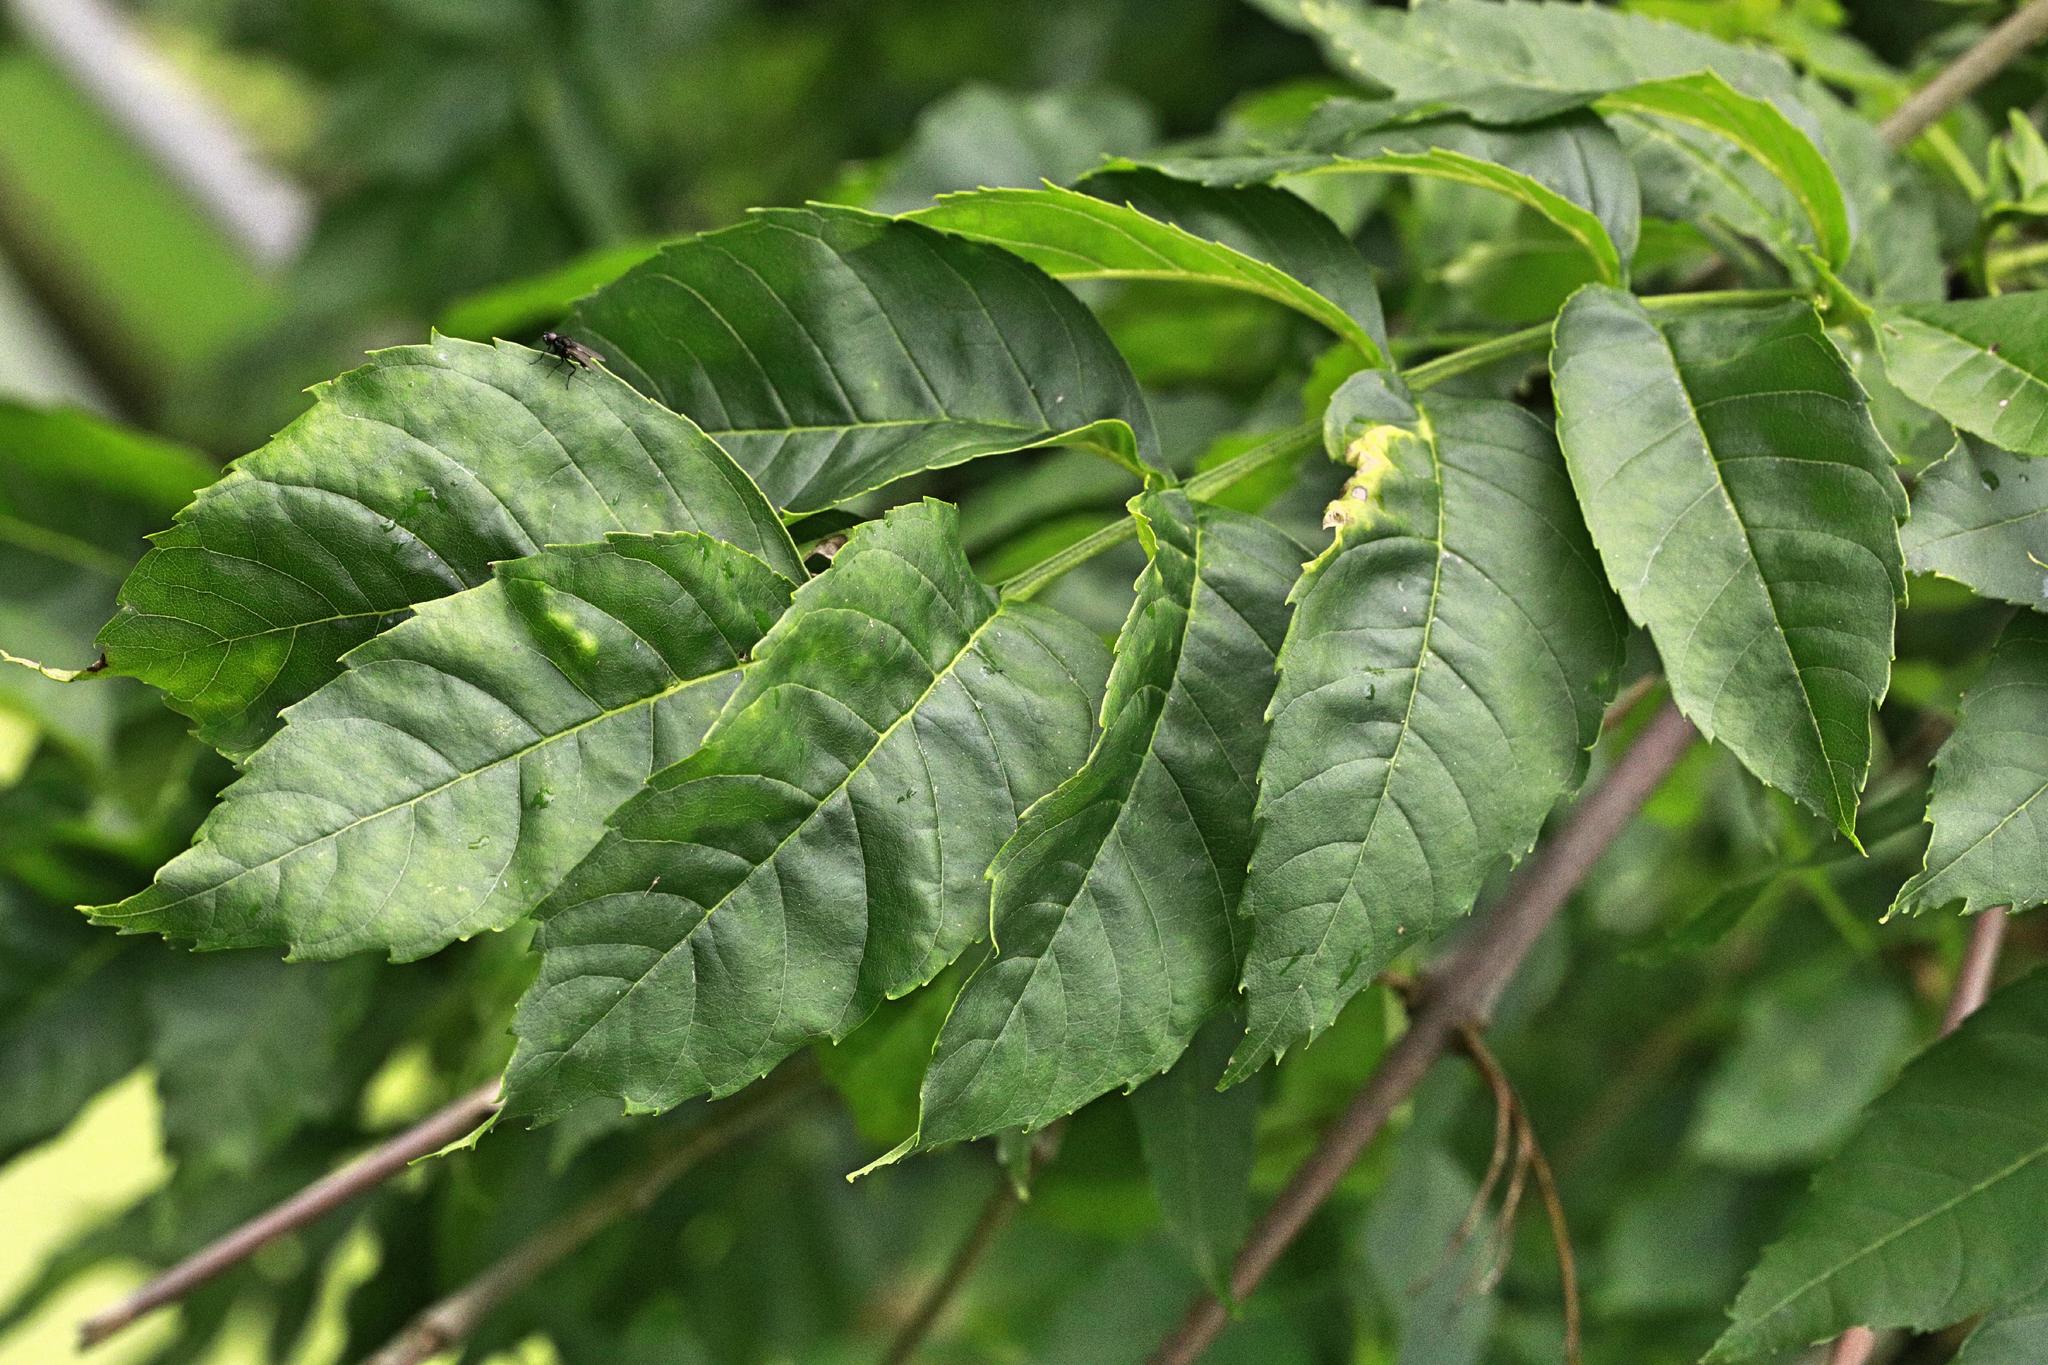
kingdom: Plantae
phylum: Tracheophyta
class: Magnoliopsida
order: Lamiales
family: Oleaceae
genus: Fraxinus
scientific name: Fraxinus excelsior
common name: European ash
